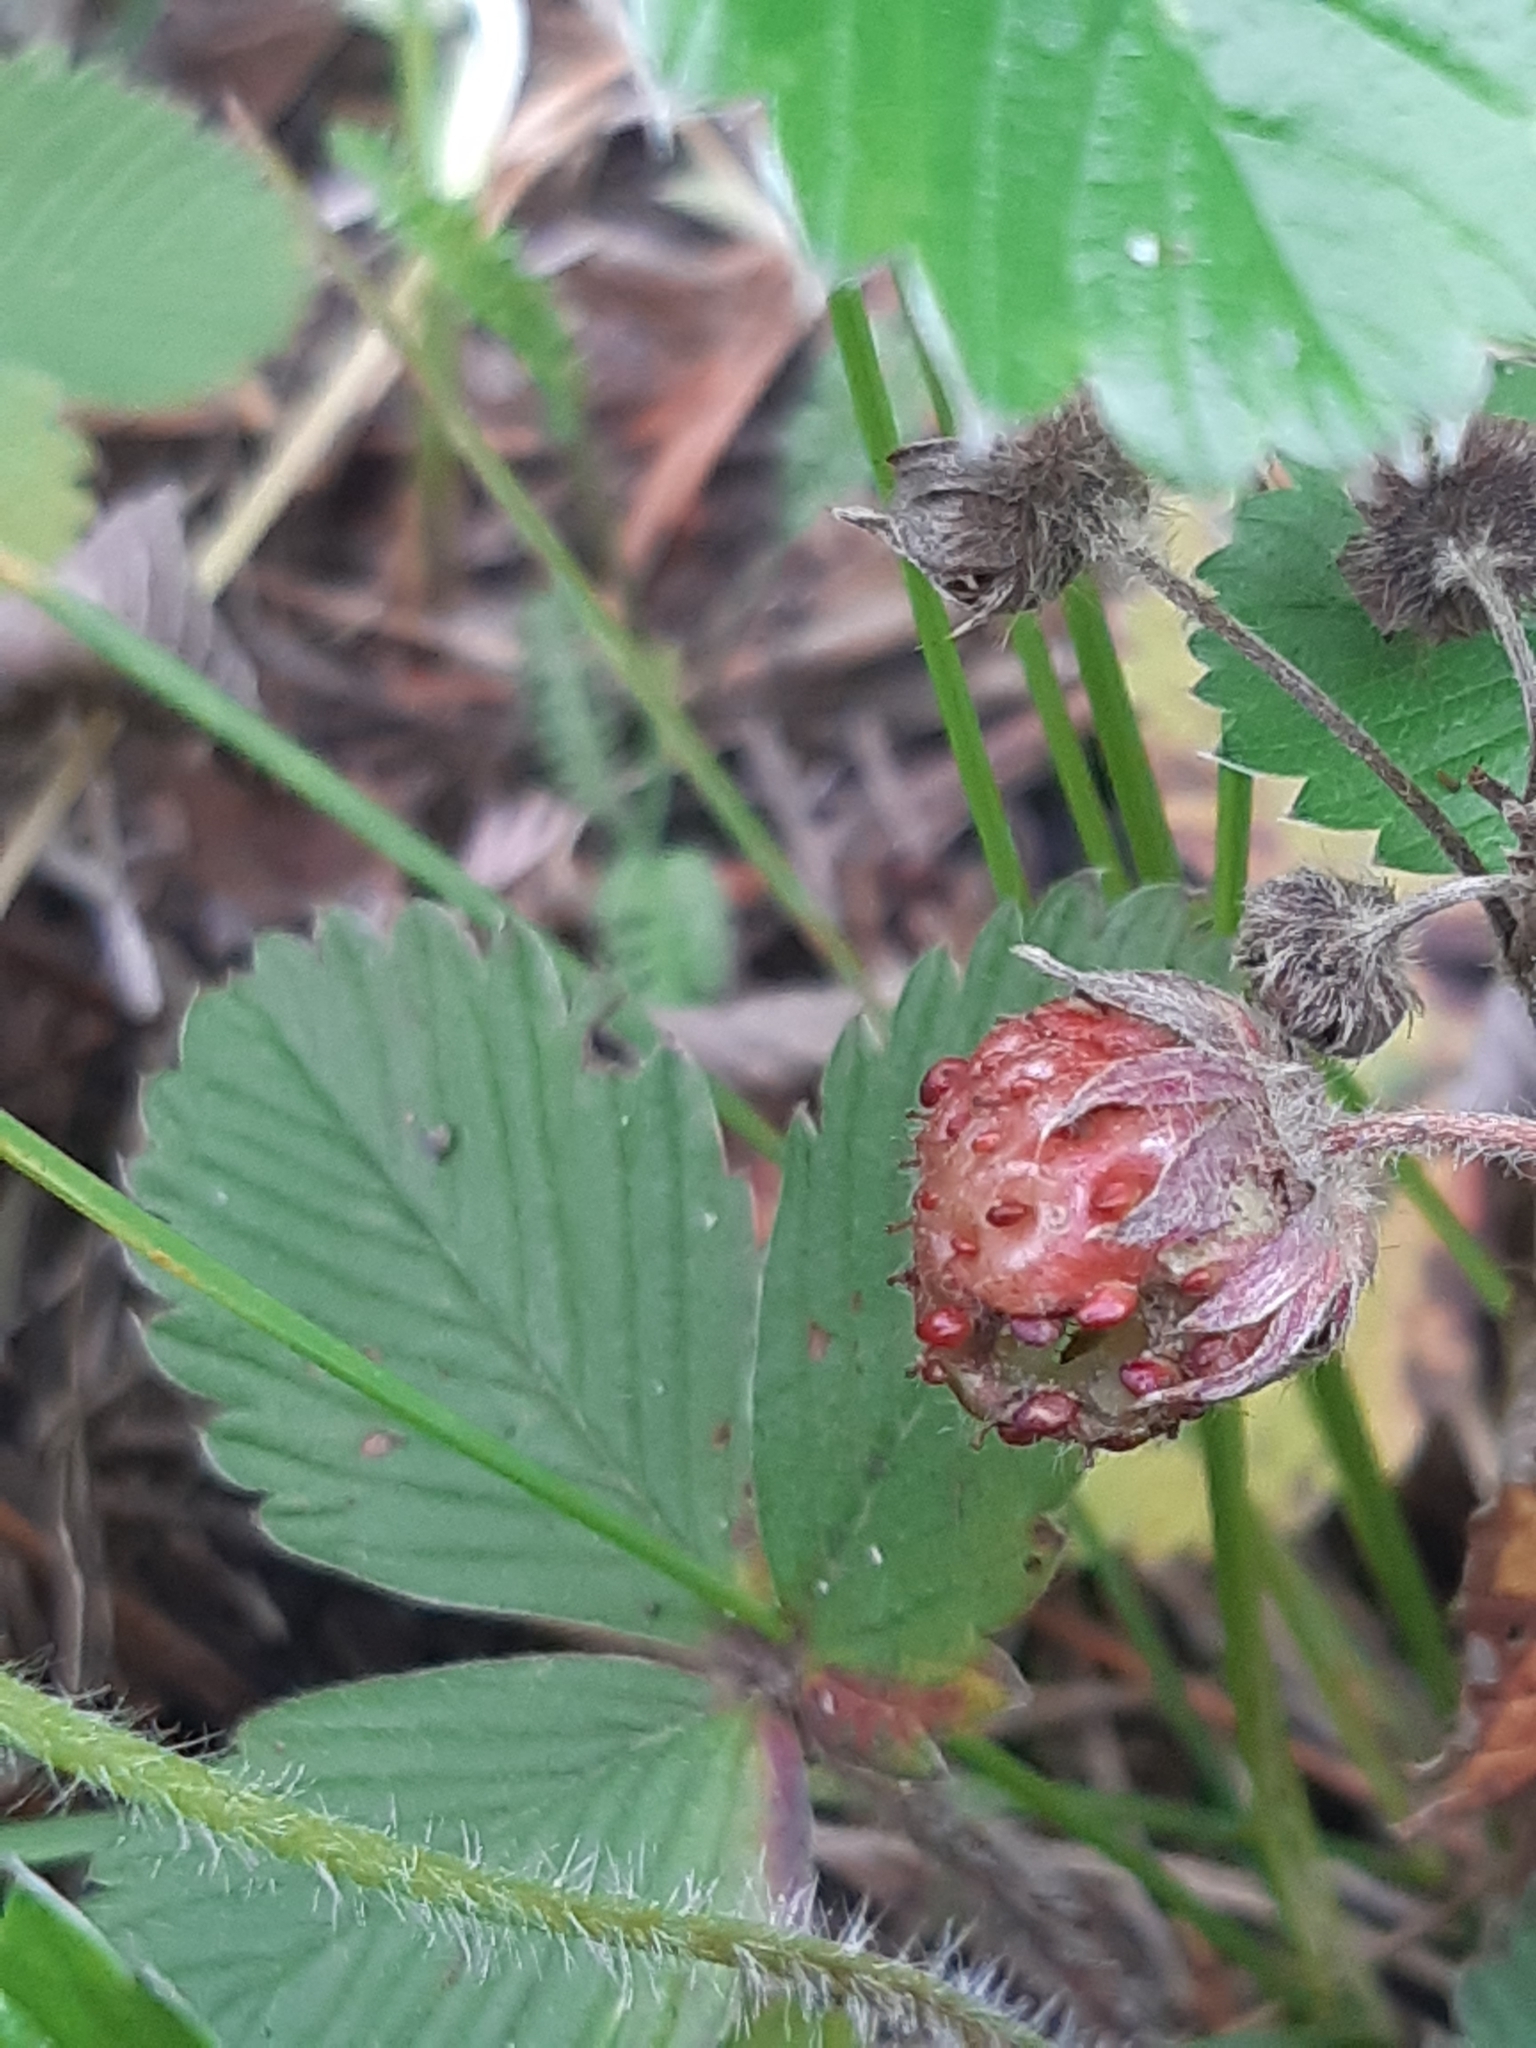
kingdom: Plantae
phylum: Tracheophyta
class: Magnoliopsida
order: Rosales
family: Rosaceae
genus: Fragaria
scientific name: Fragaria viridis
